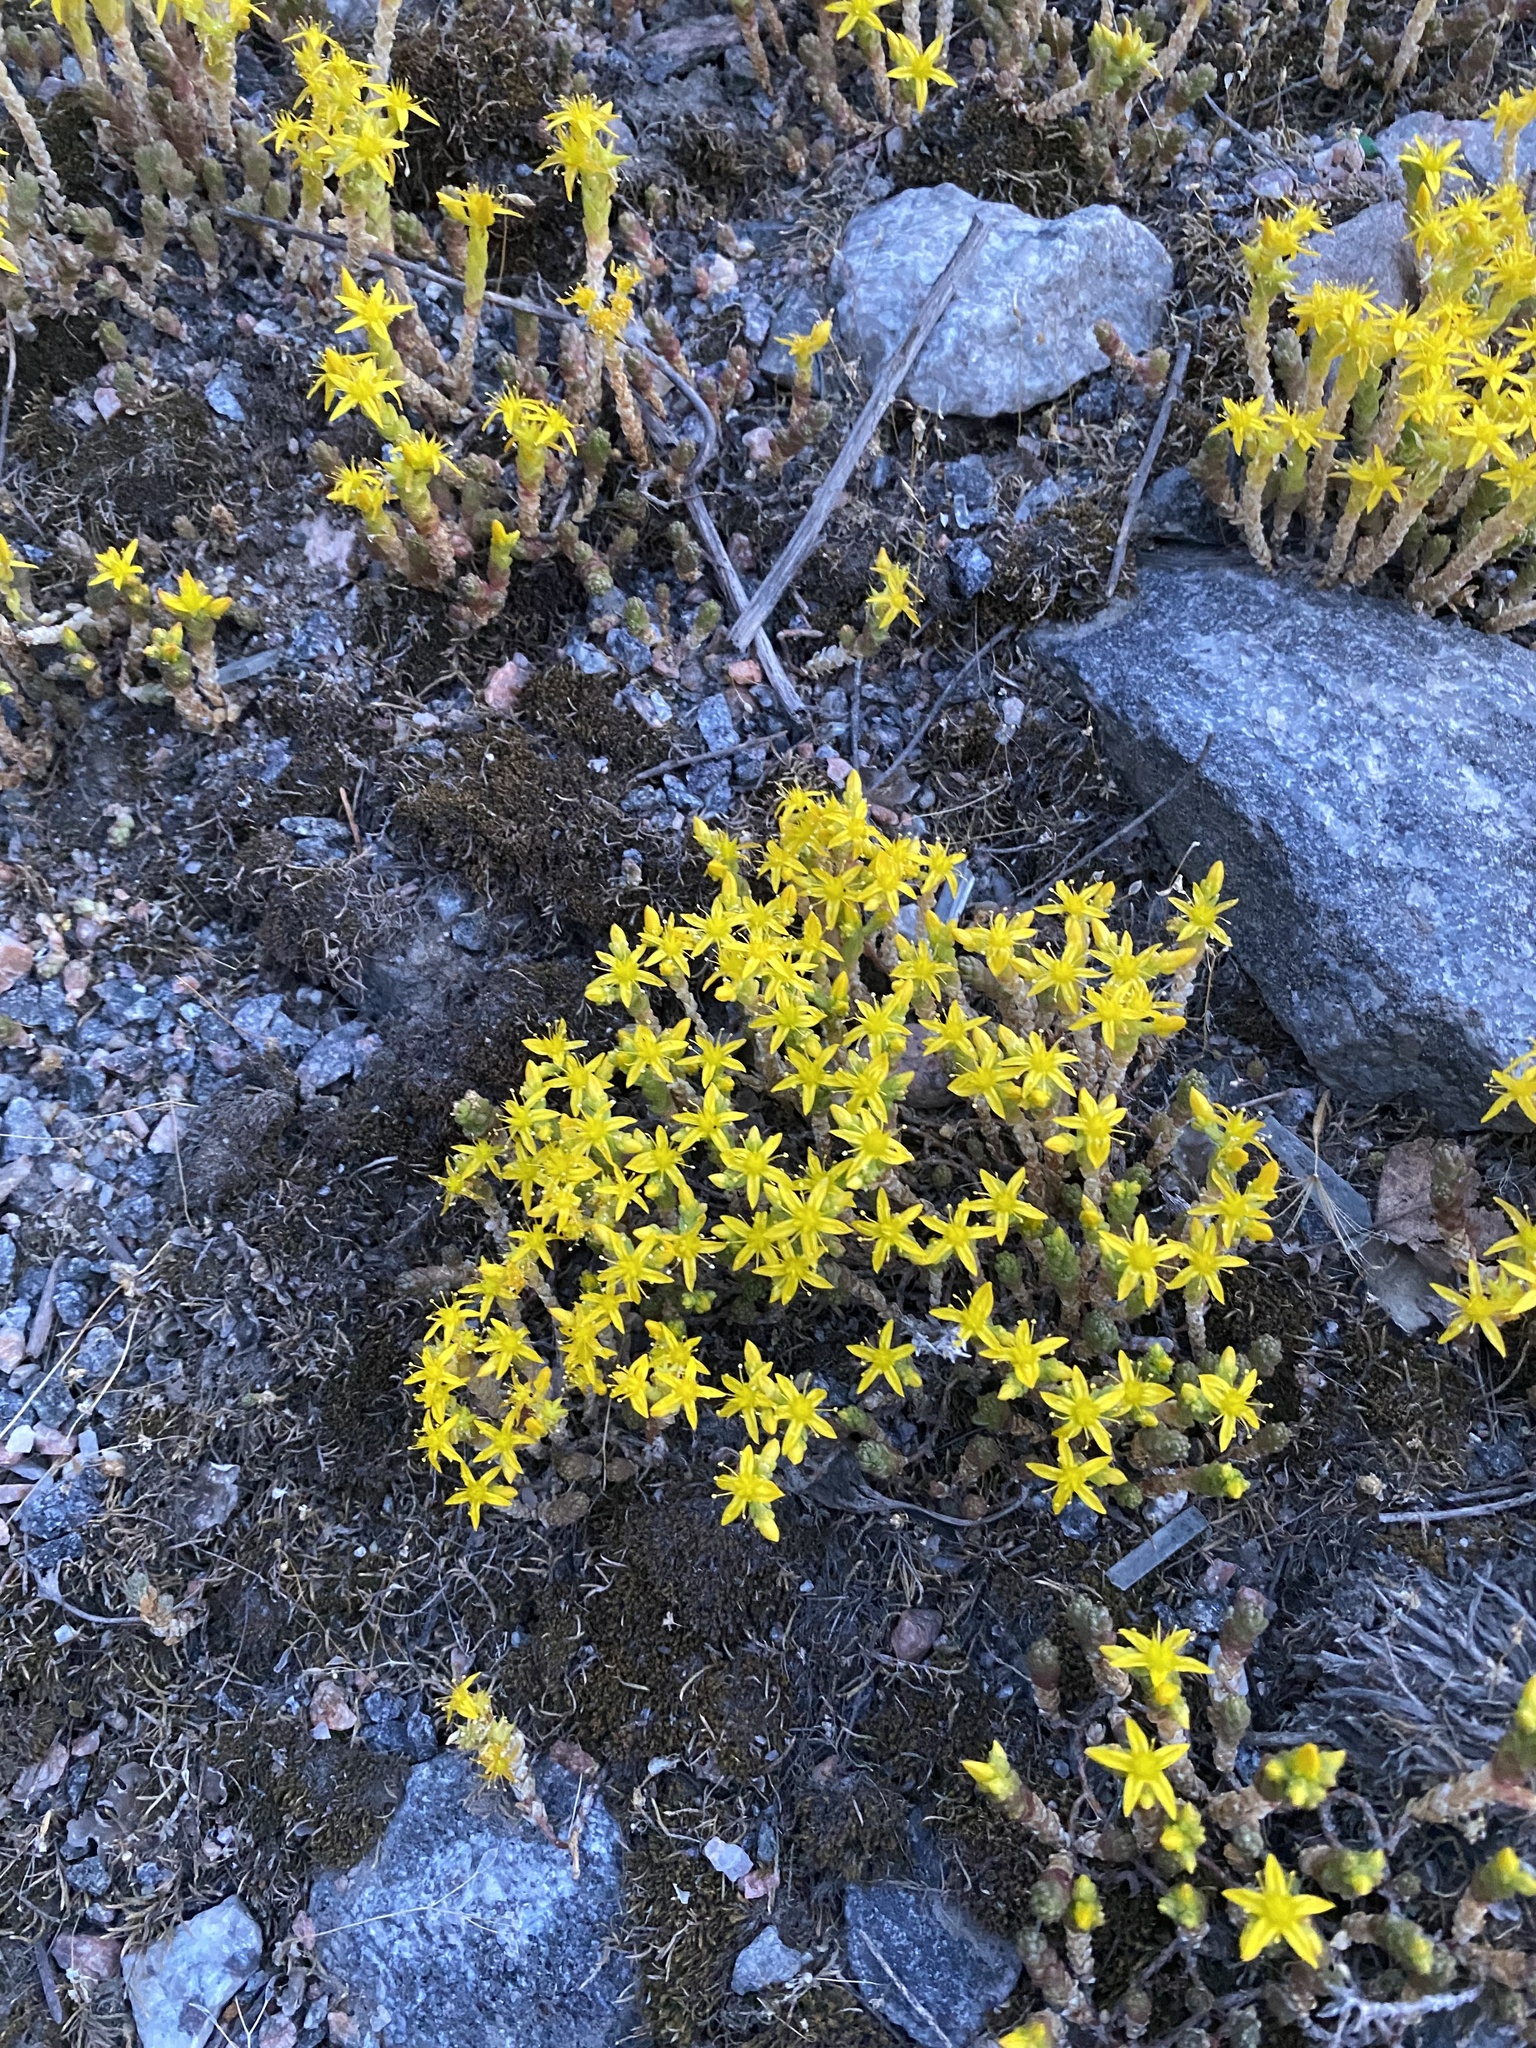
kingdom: Plantae
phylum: Tracheophyta
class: Magnoliopsida
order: Saxifragales
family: Crassulaceae
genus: Sedum
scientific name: Sedum acre
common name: Biting stonecrop
